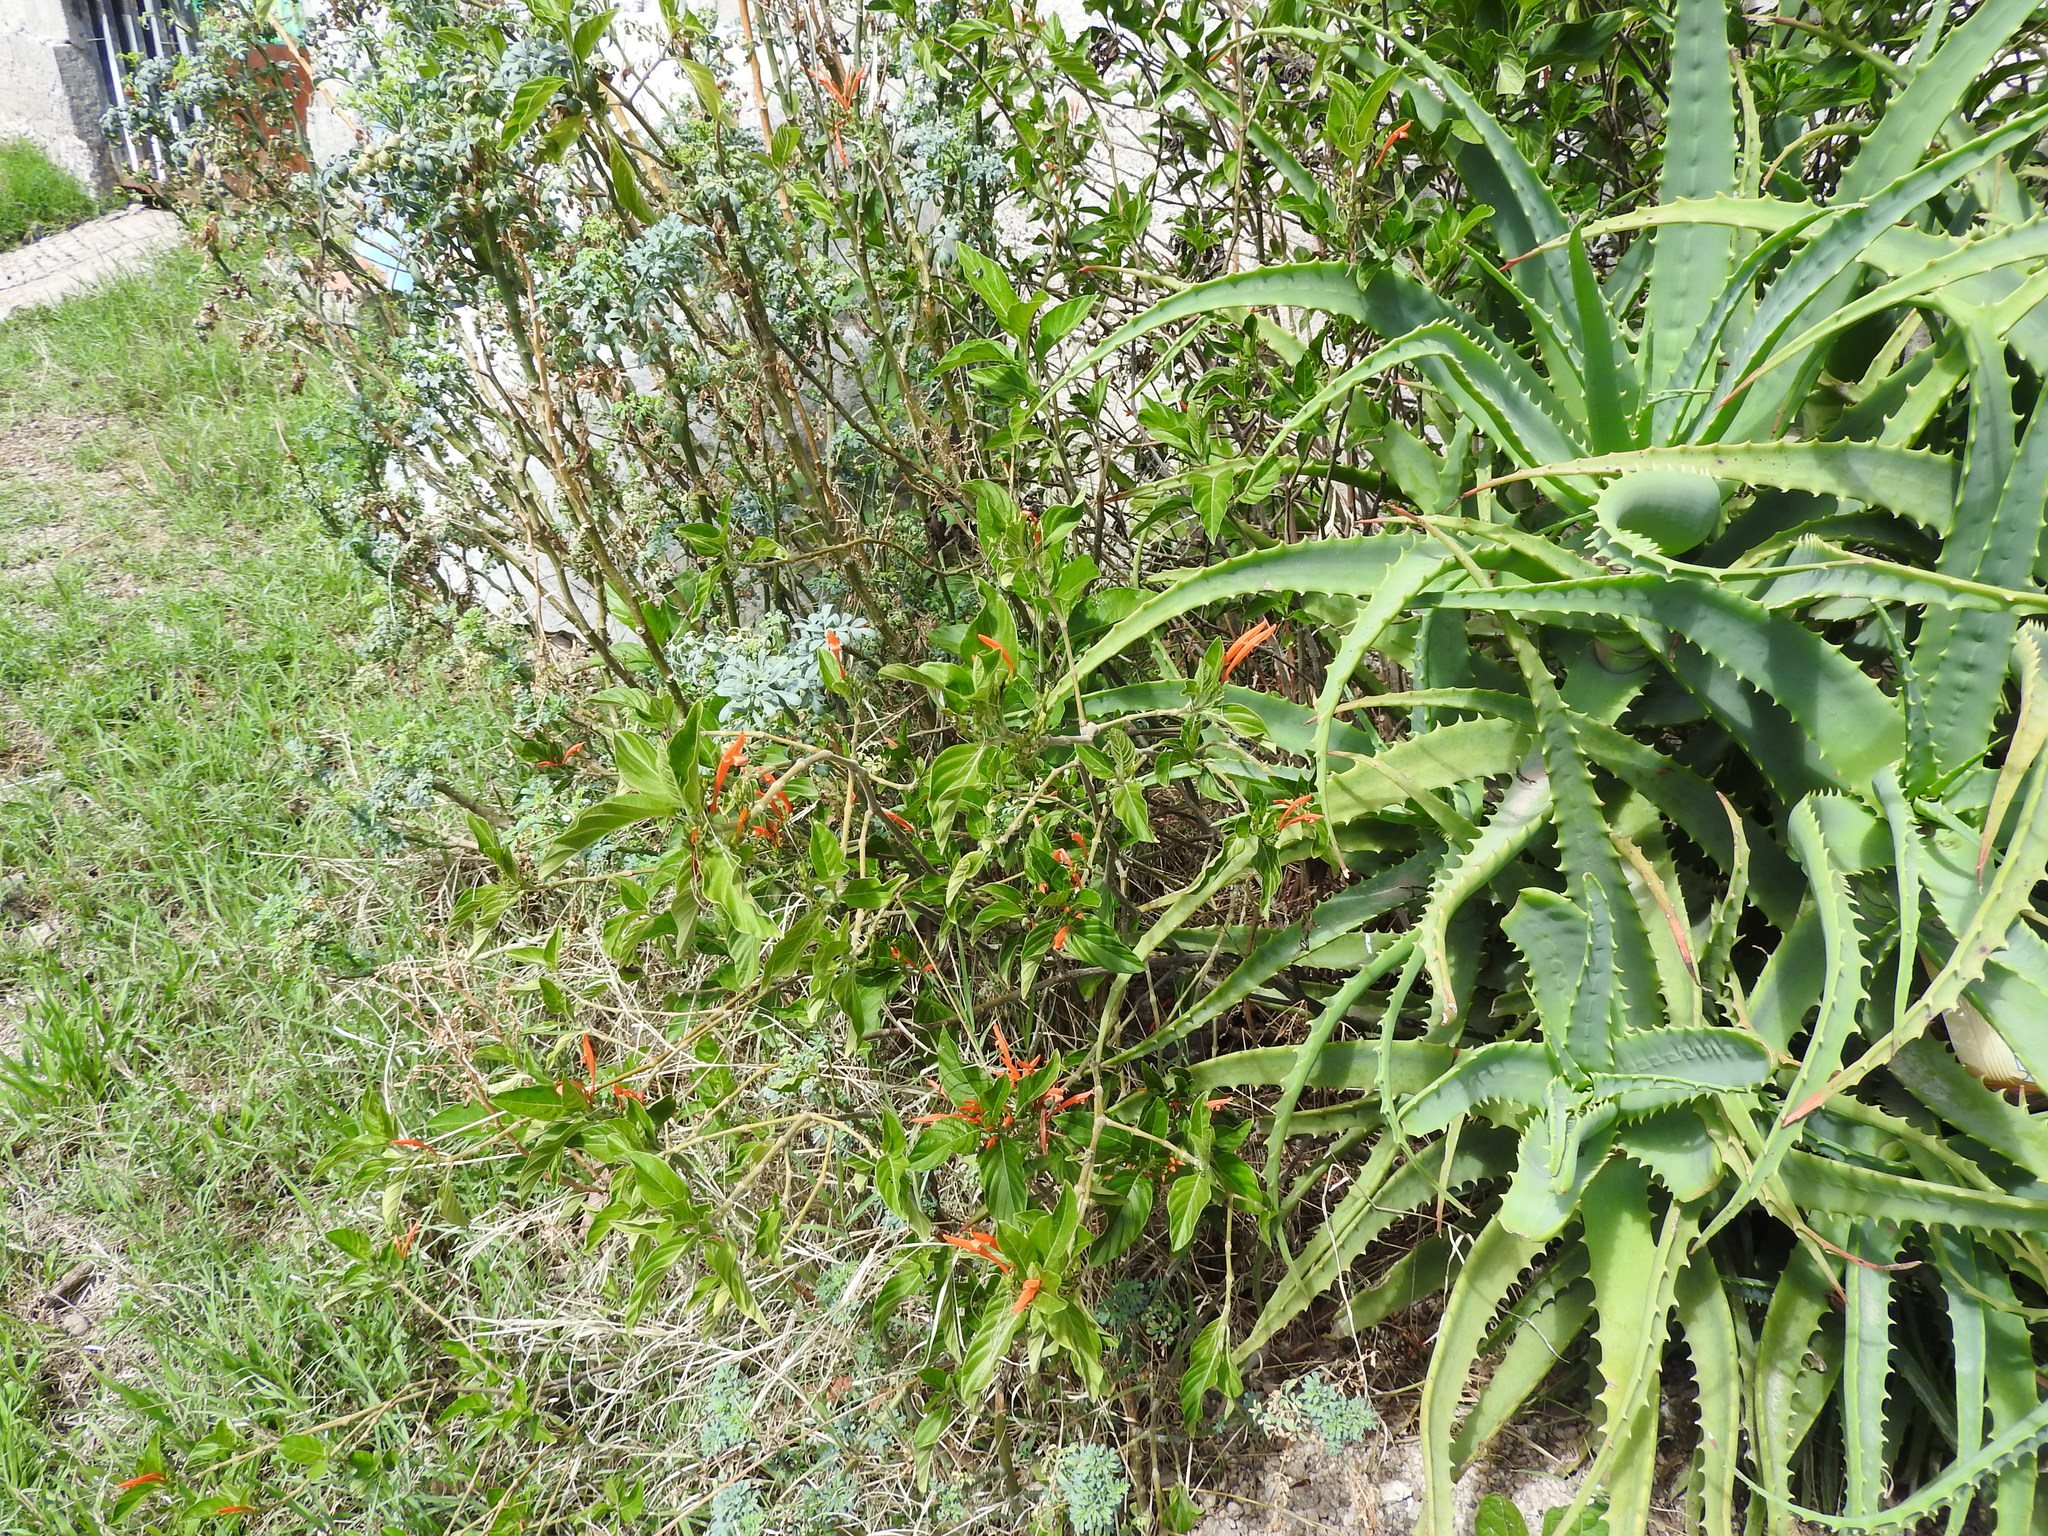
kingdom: Plantae
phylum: Tracheophyta
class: Magnoliopsida
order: Lamiales
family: Acanthaceae
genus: Justicia
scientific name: Justicia spicigera
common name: Mohintli
